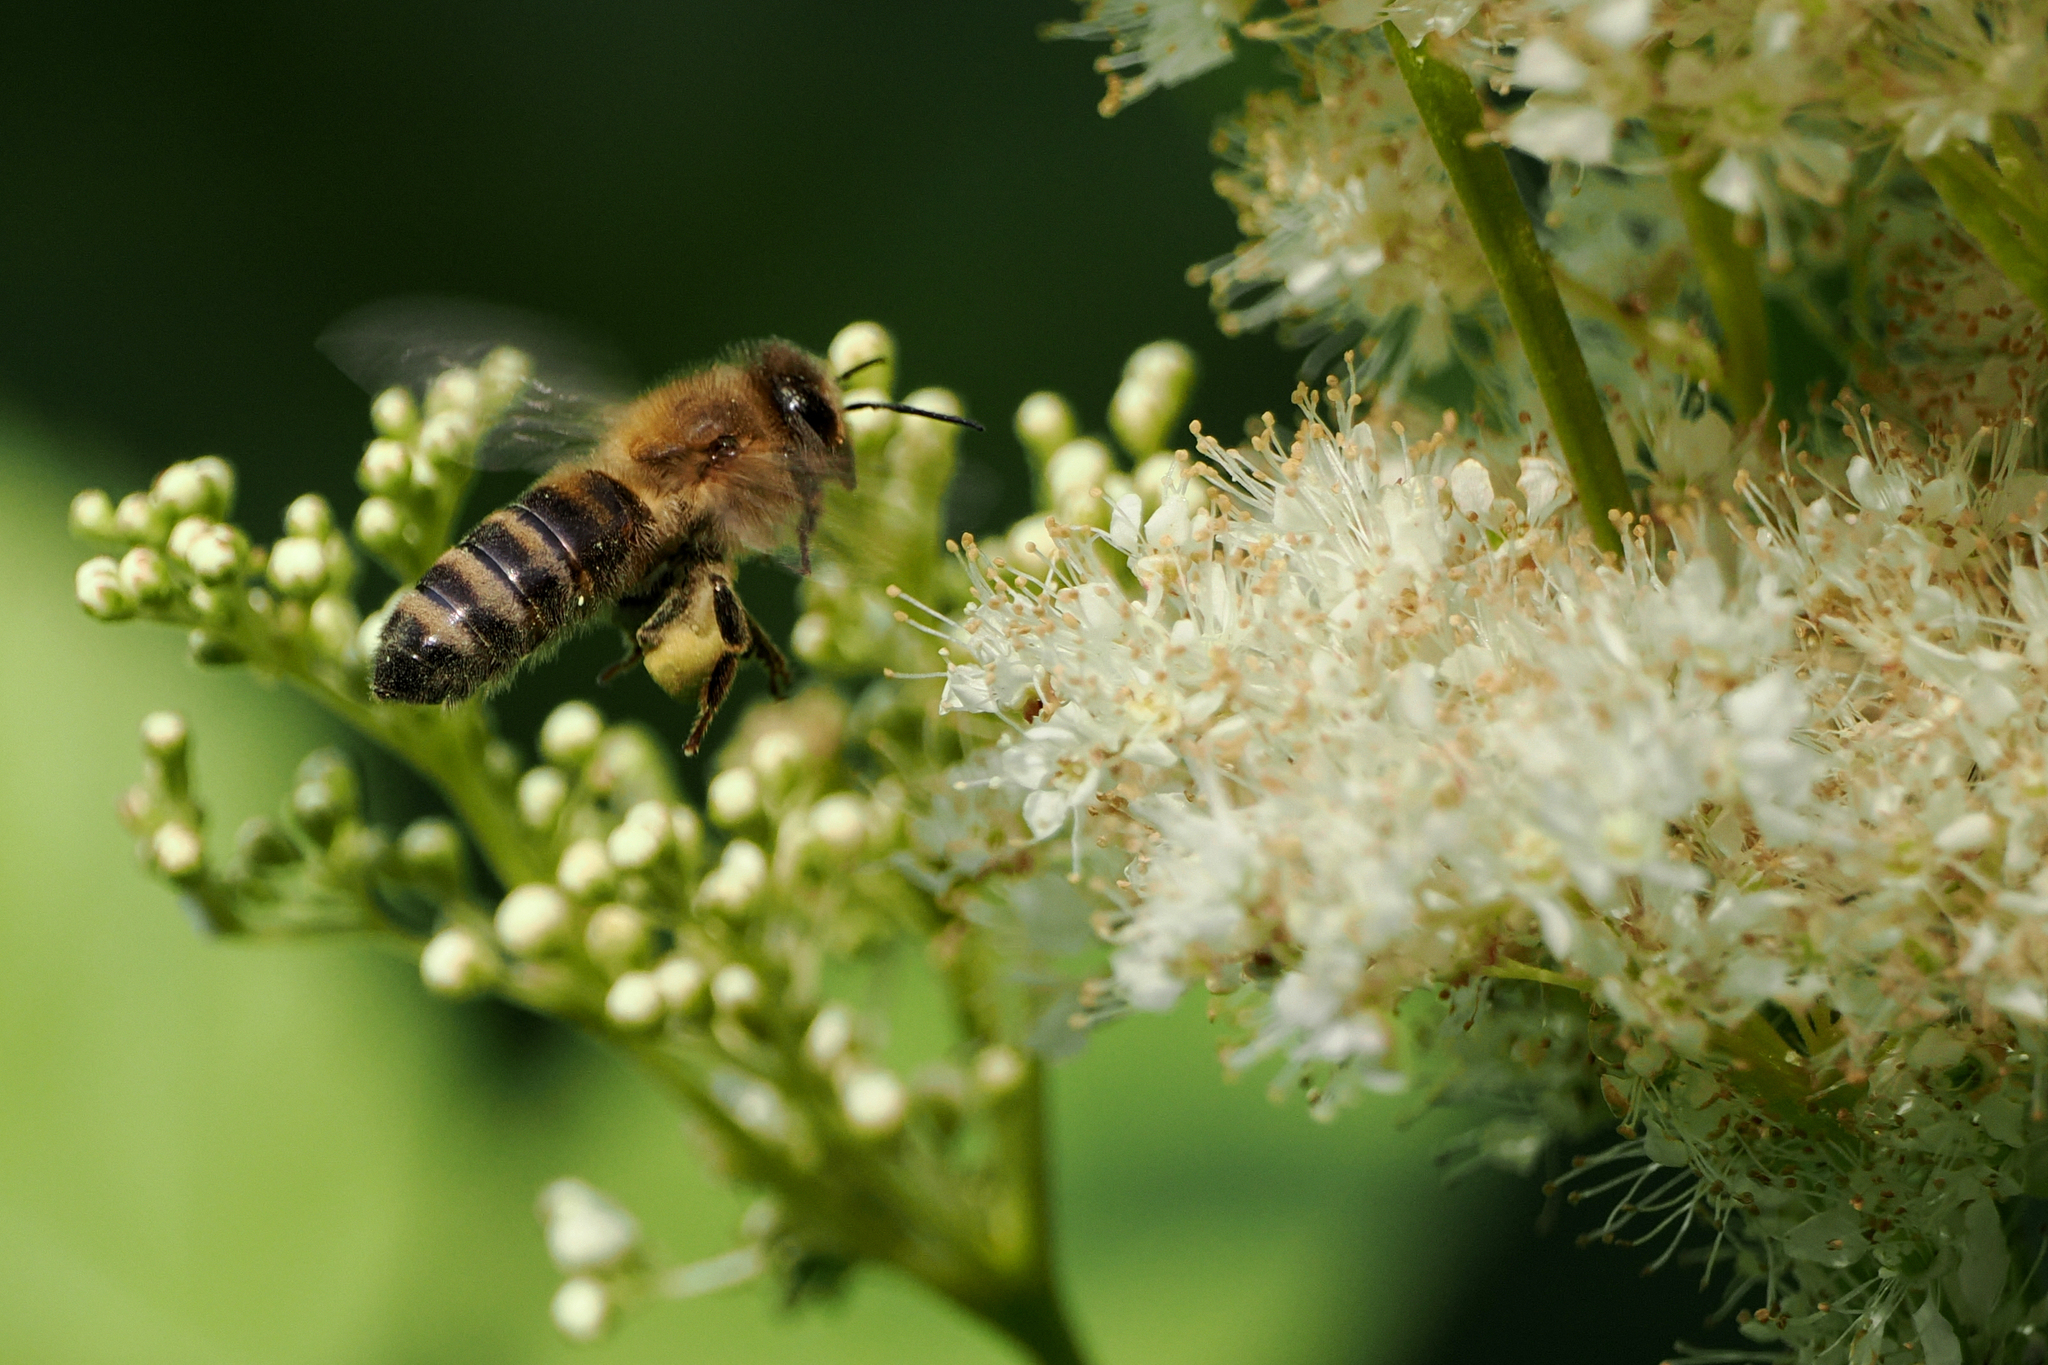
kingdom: Animalia
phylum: Arthropoda
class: Insecta
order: Hymenoptera
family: Apidae
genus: Apis
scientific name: Apis mellifera
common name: Honey bee
